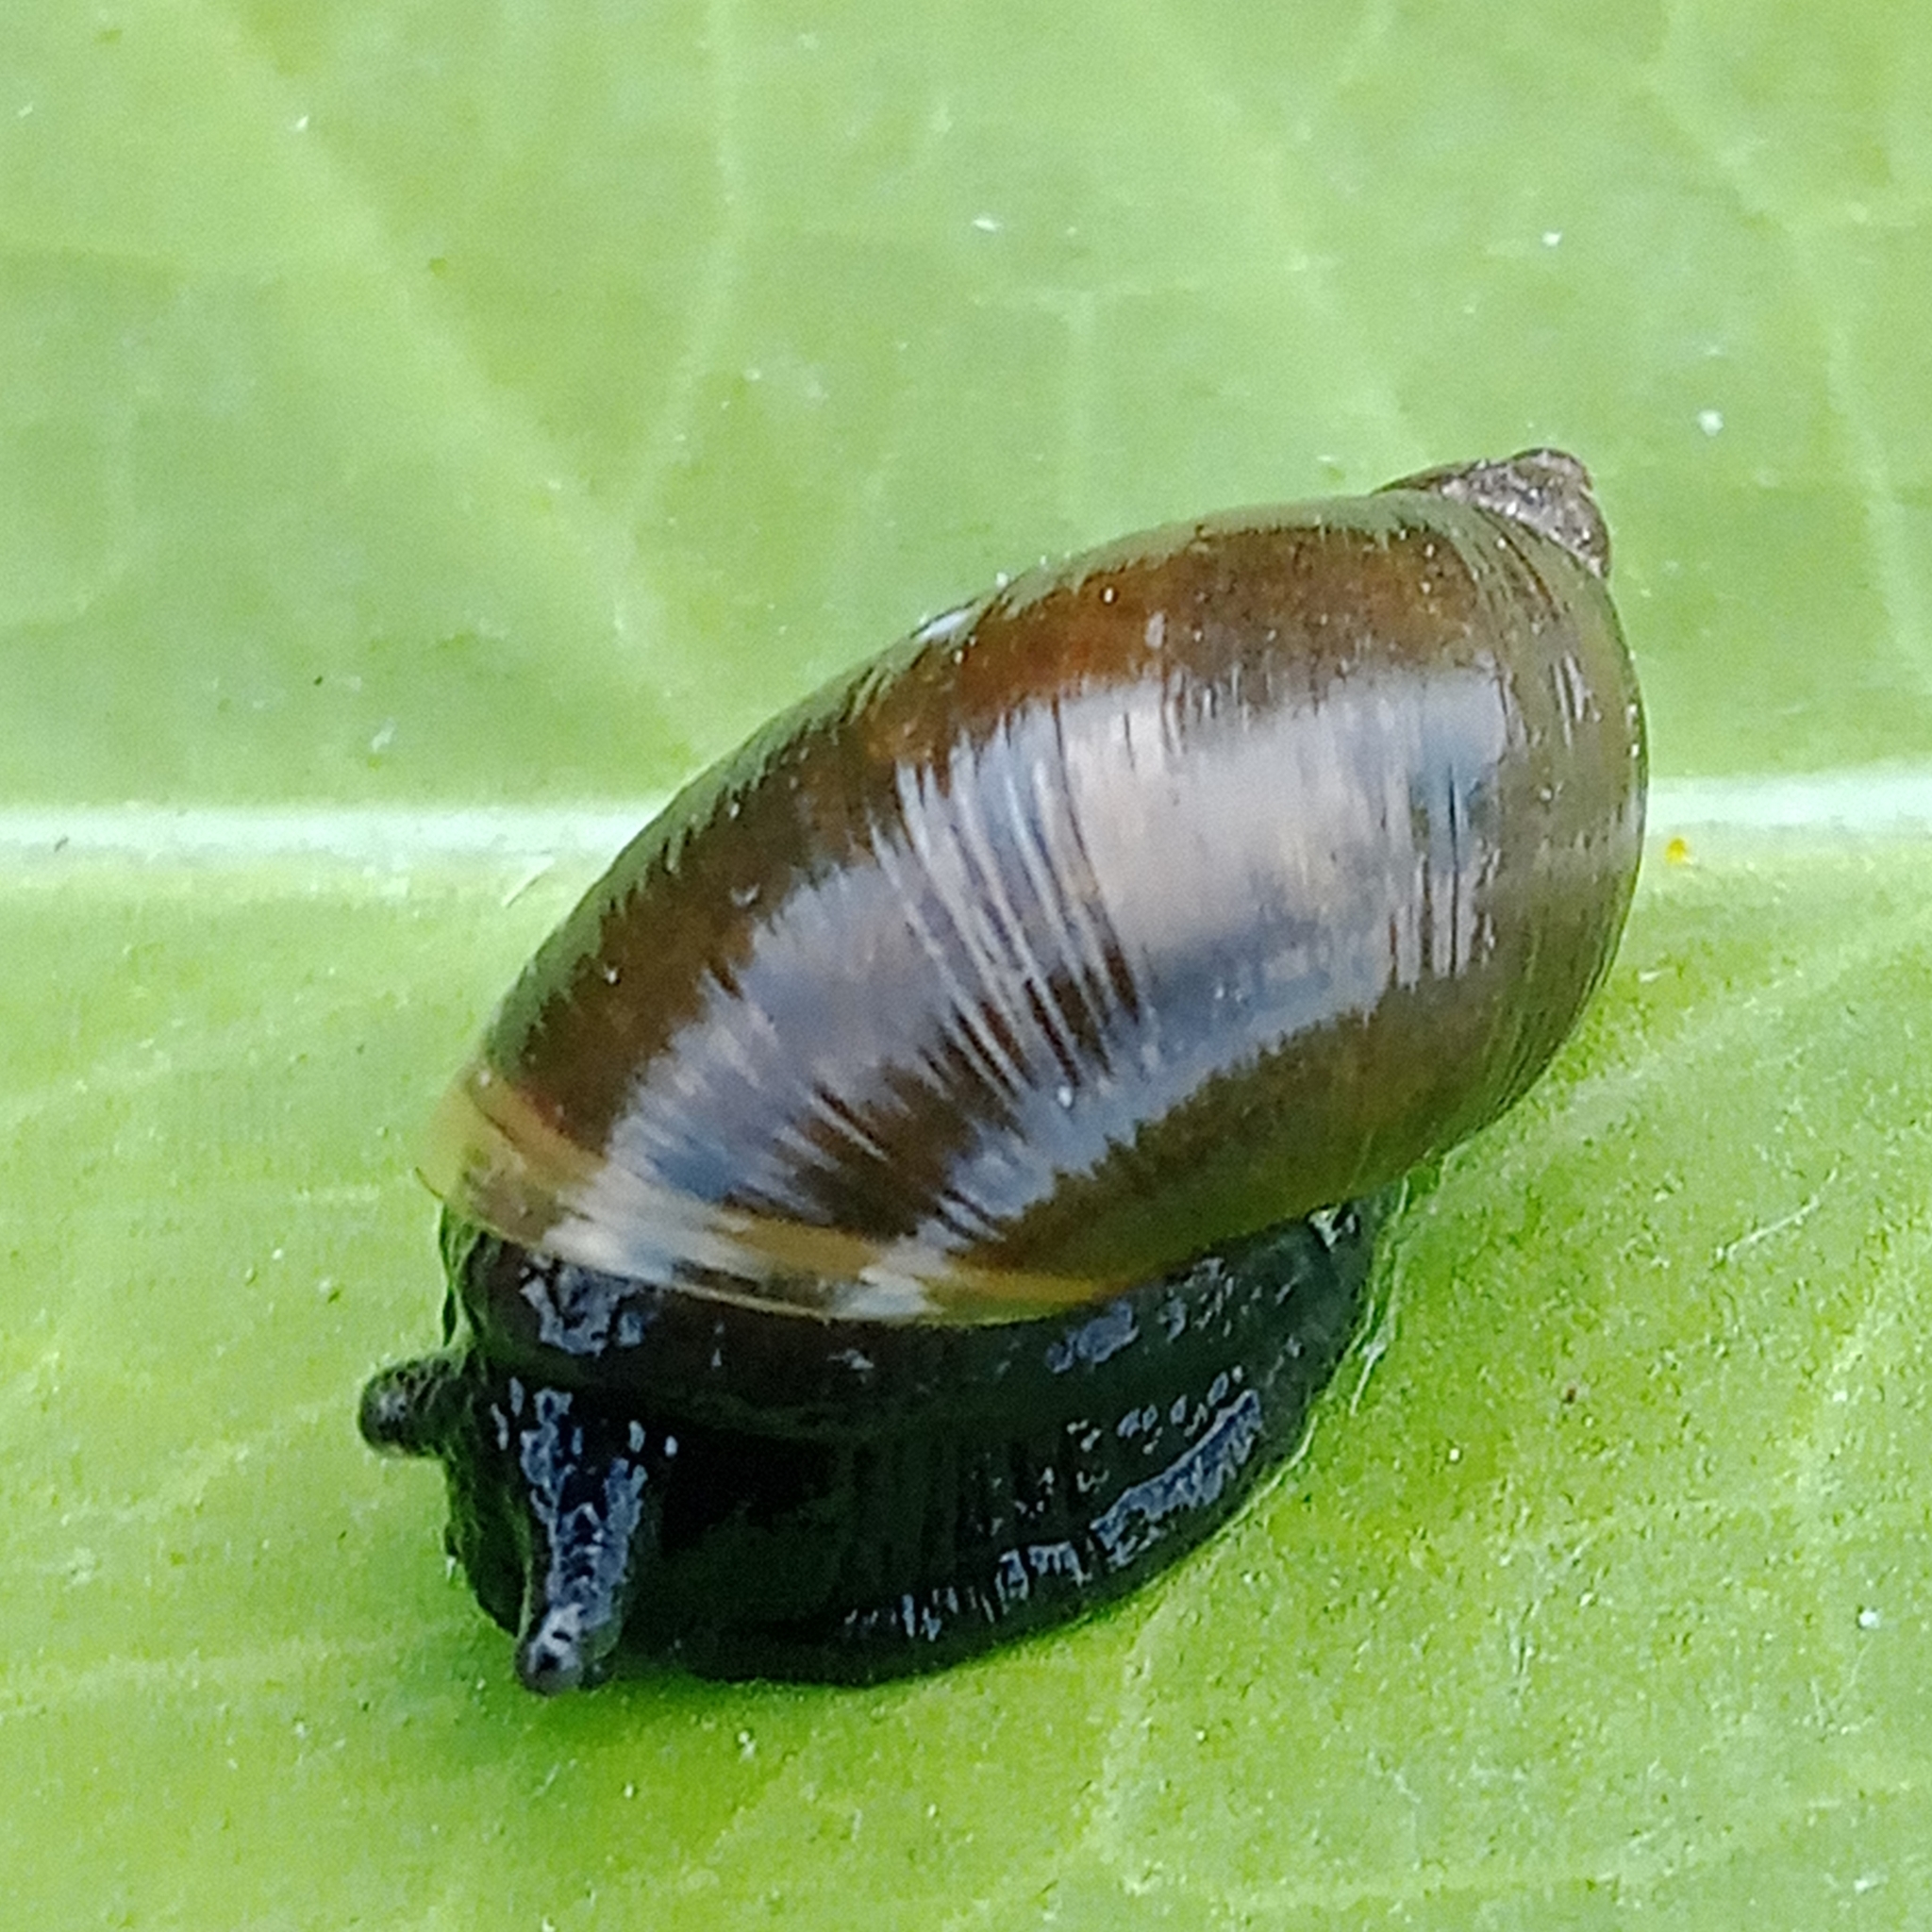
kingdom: Animalia
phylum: Mollusca
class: Gastropoda
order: Stylommatophora
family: Succineidae
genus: Succinea
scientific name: Succinea putris
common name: European ambersnail
